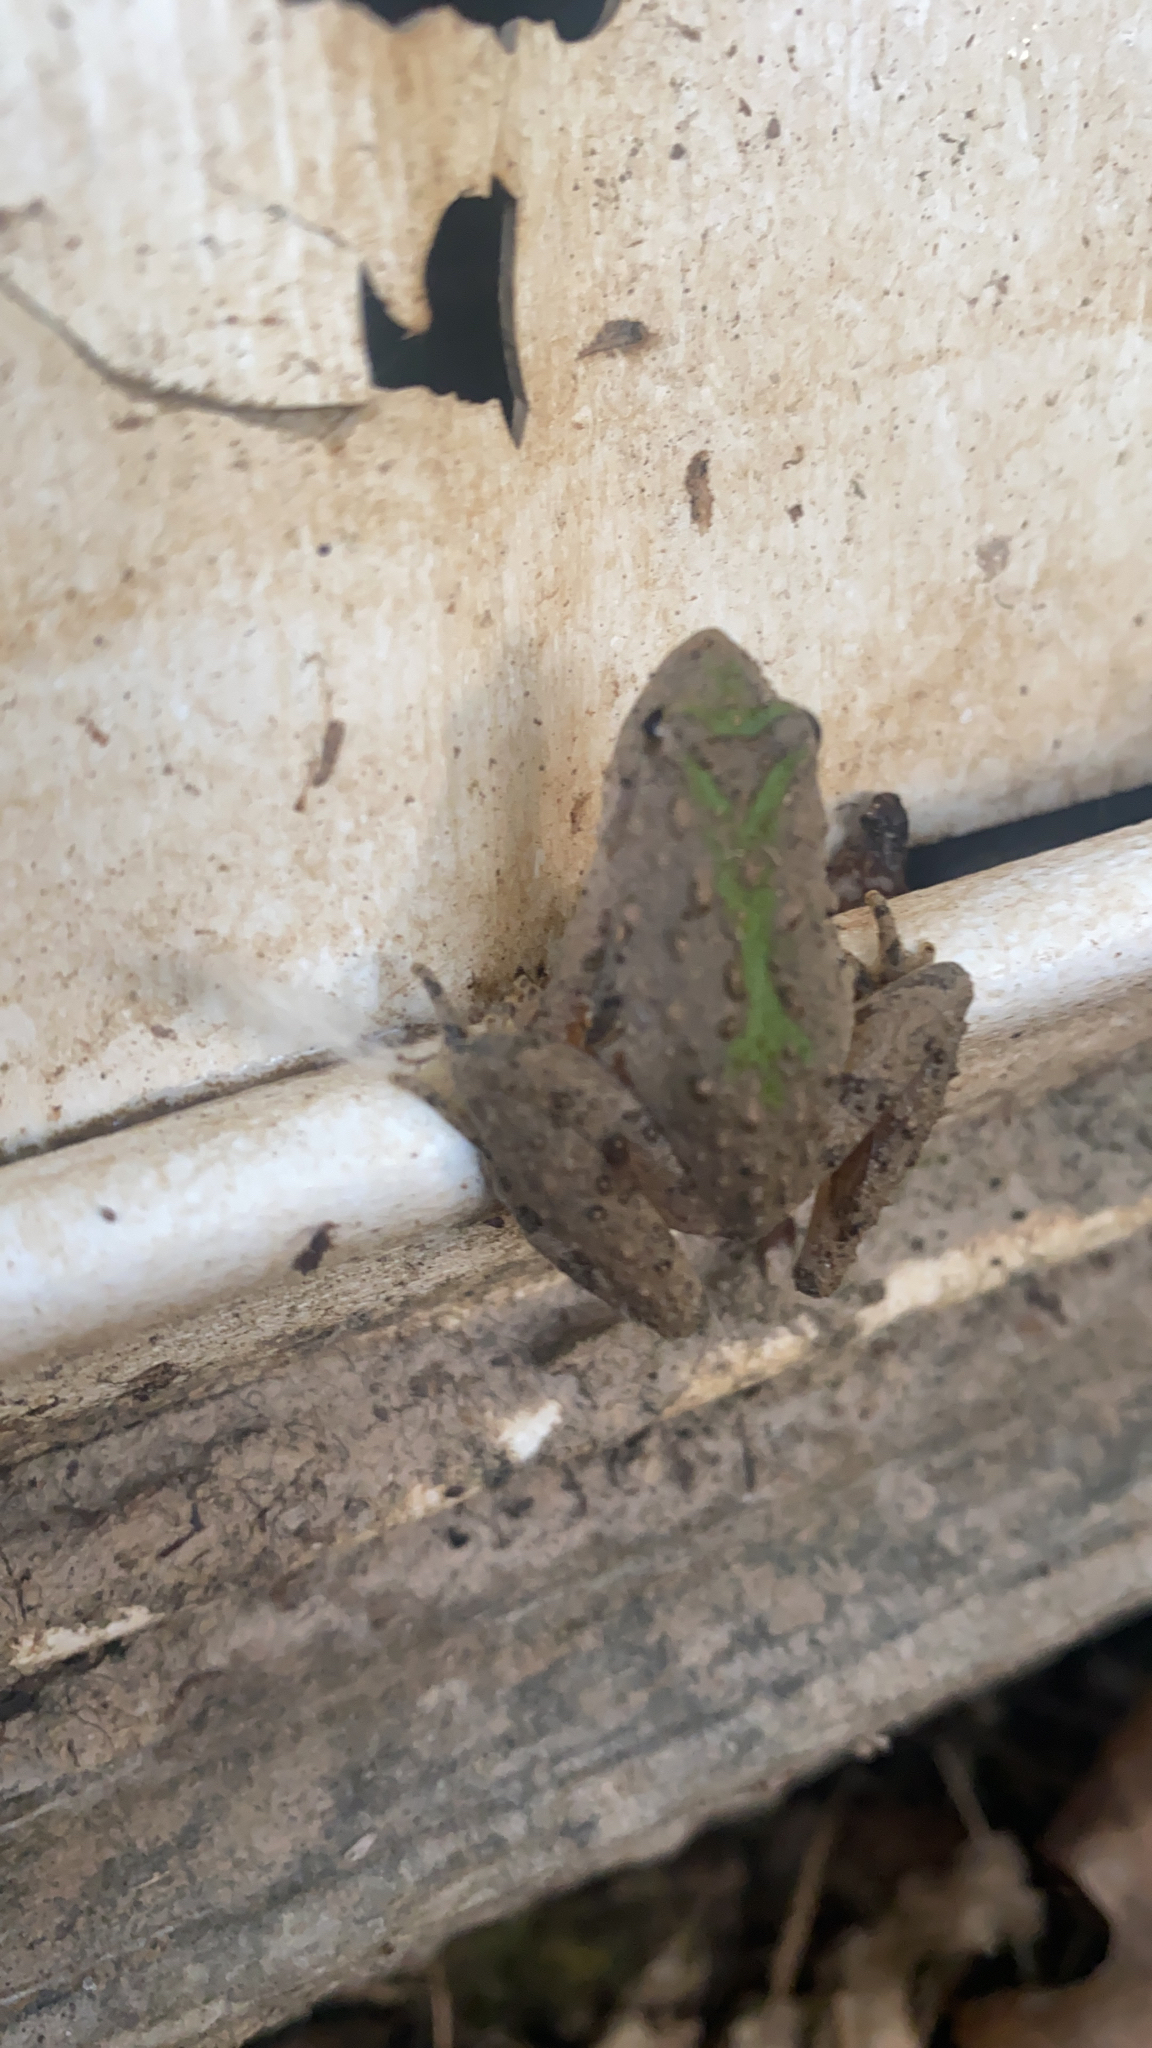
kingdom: Animalia
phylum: Chordata
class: Amphibia
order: Anura
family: Hylidae
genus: Acris
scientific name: Acris blanchardi
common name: Blanchard's cricket frog
